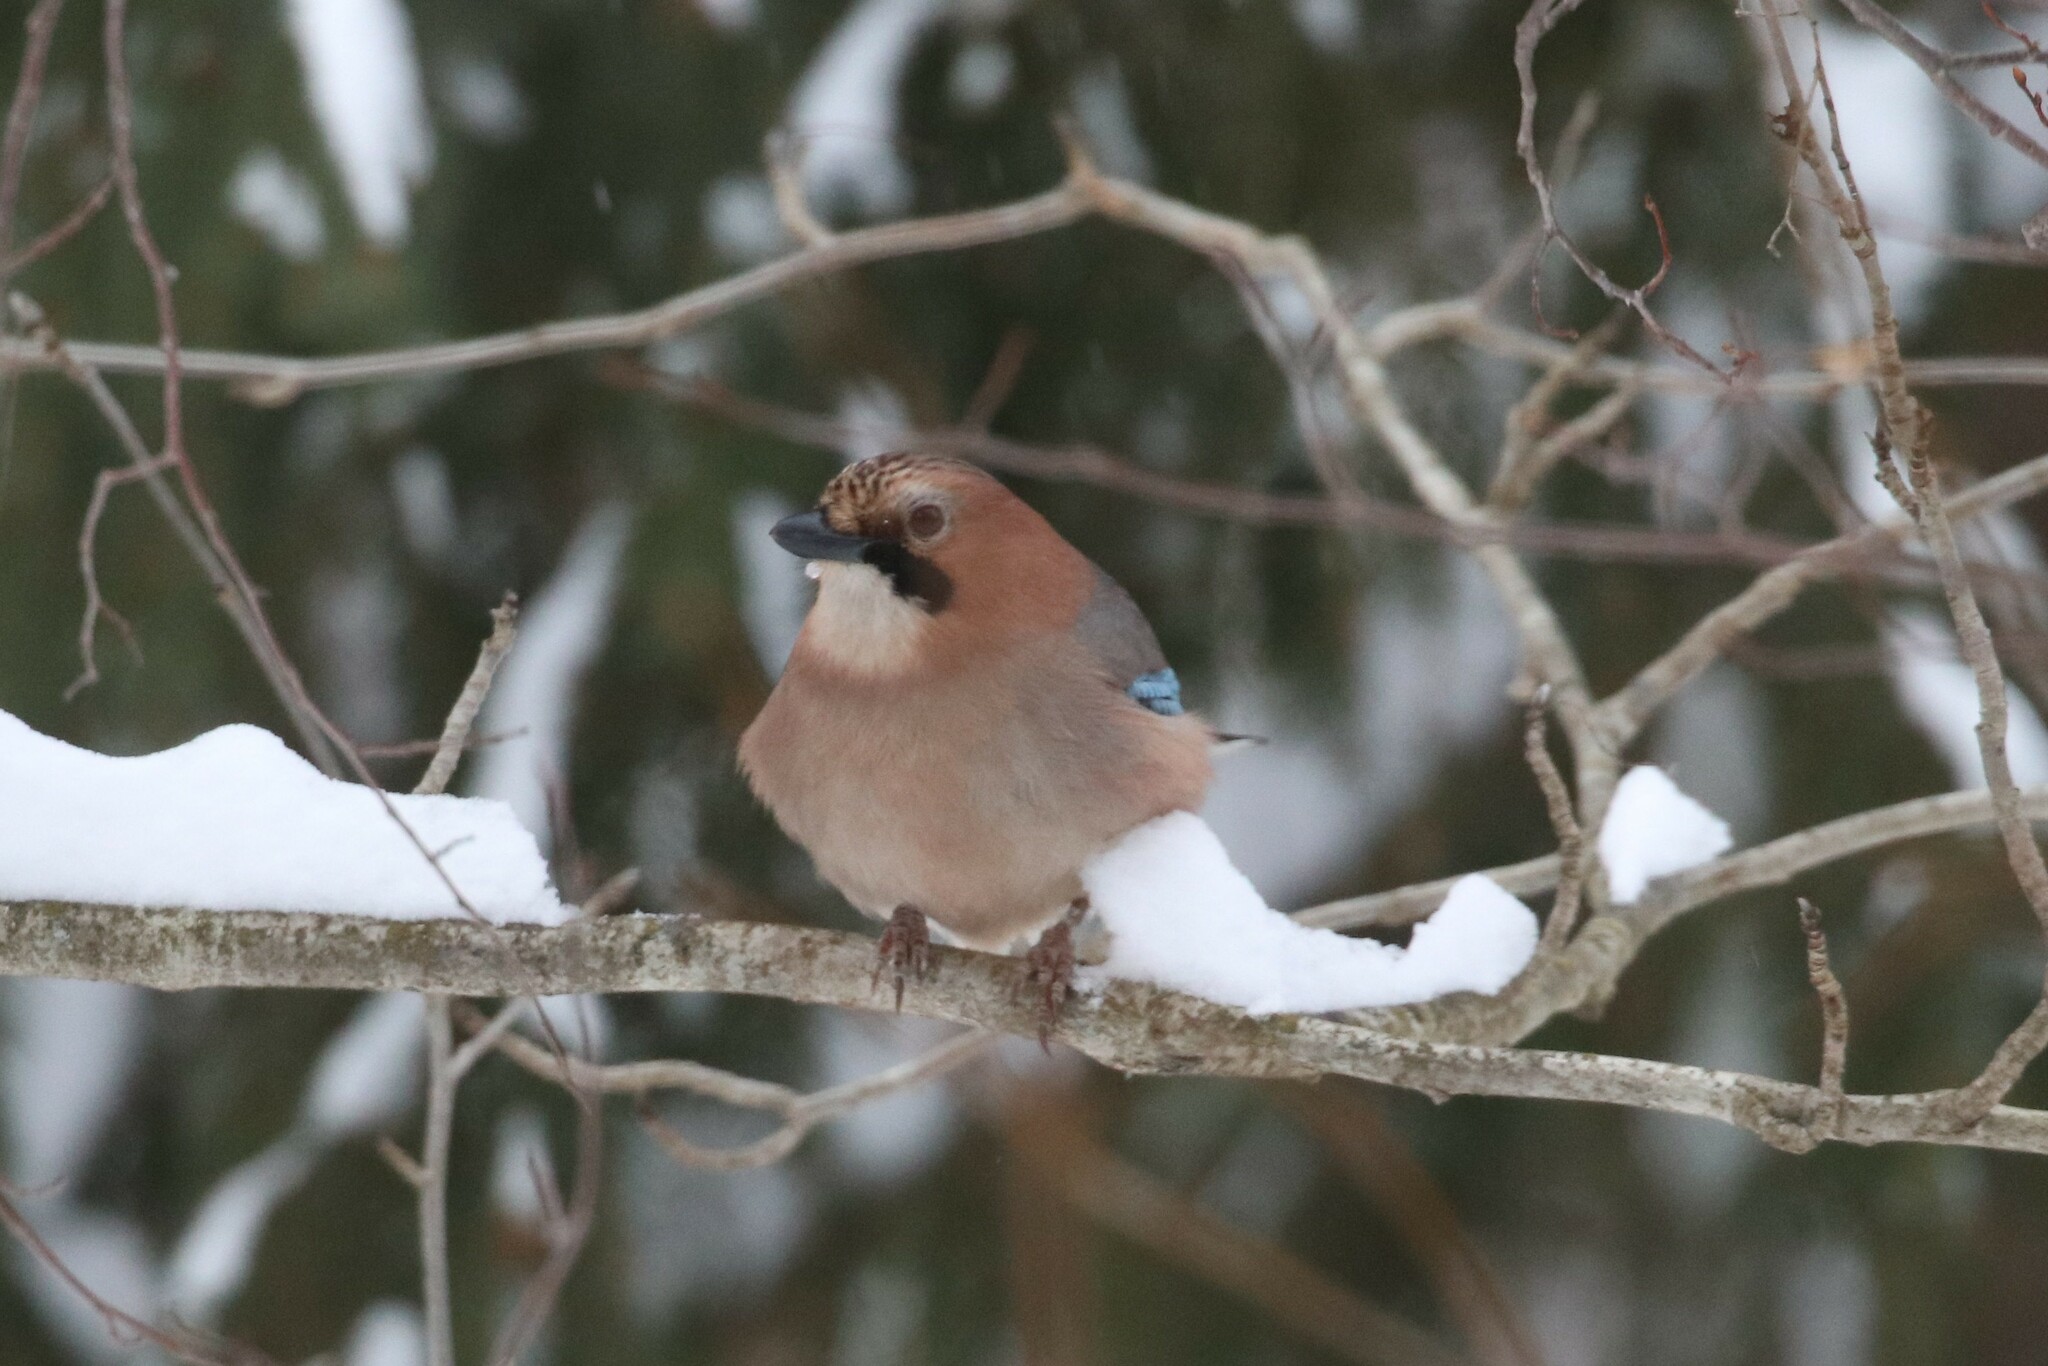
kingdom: Animalia
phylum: Chordata
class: Aves
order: Passeriformes
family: Corvidae
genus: Garrulus
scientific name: Garrulus glandarius
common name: Eurasian jay
